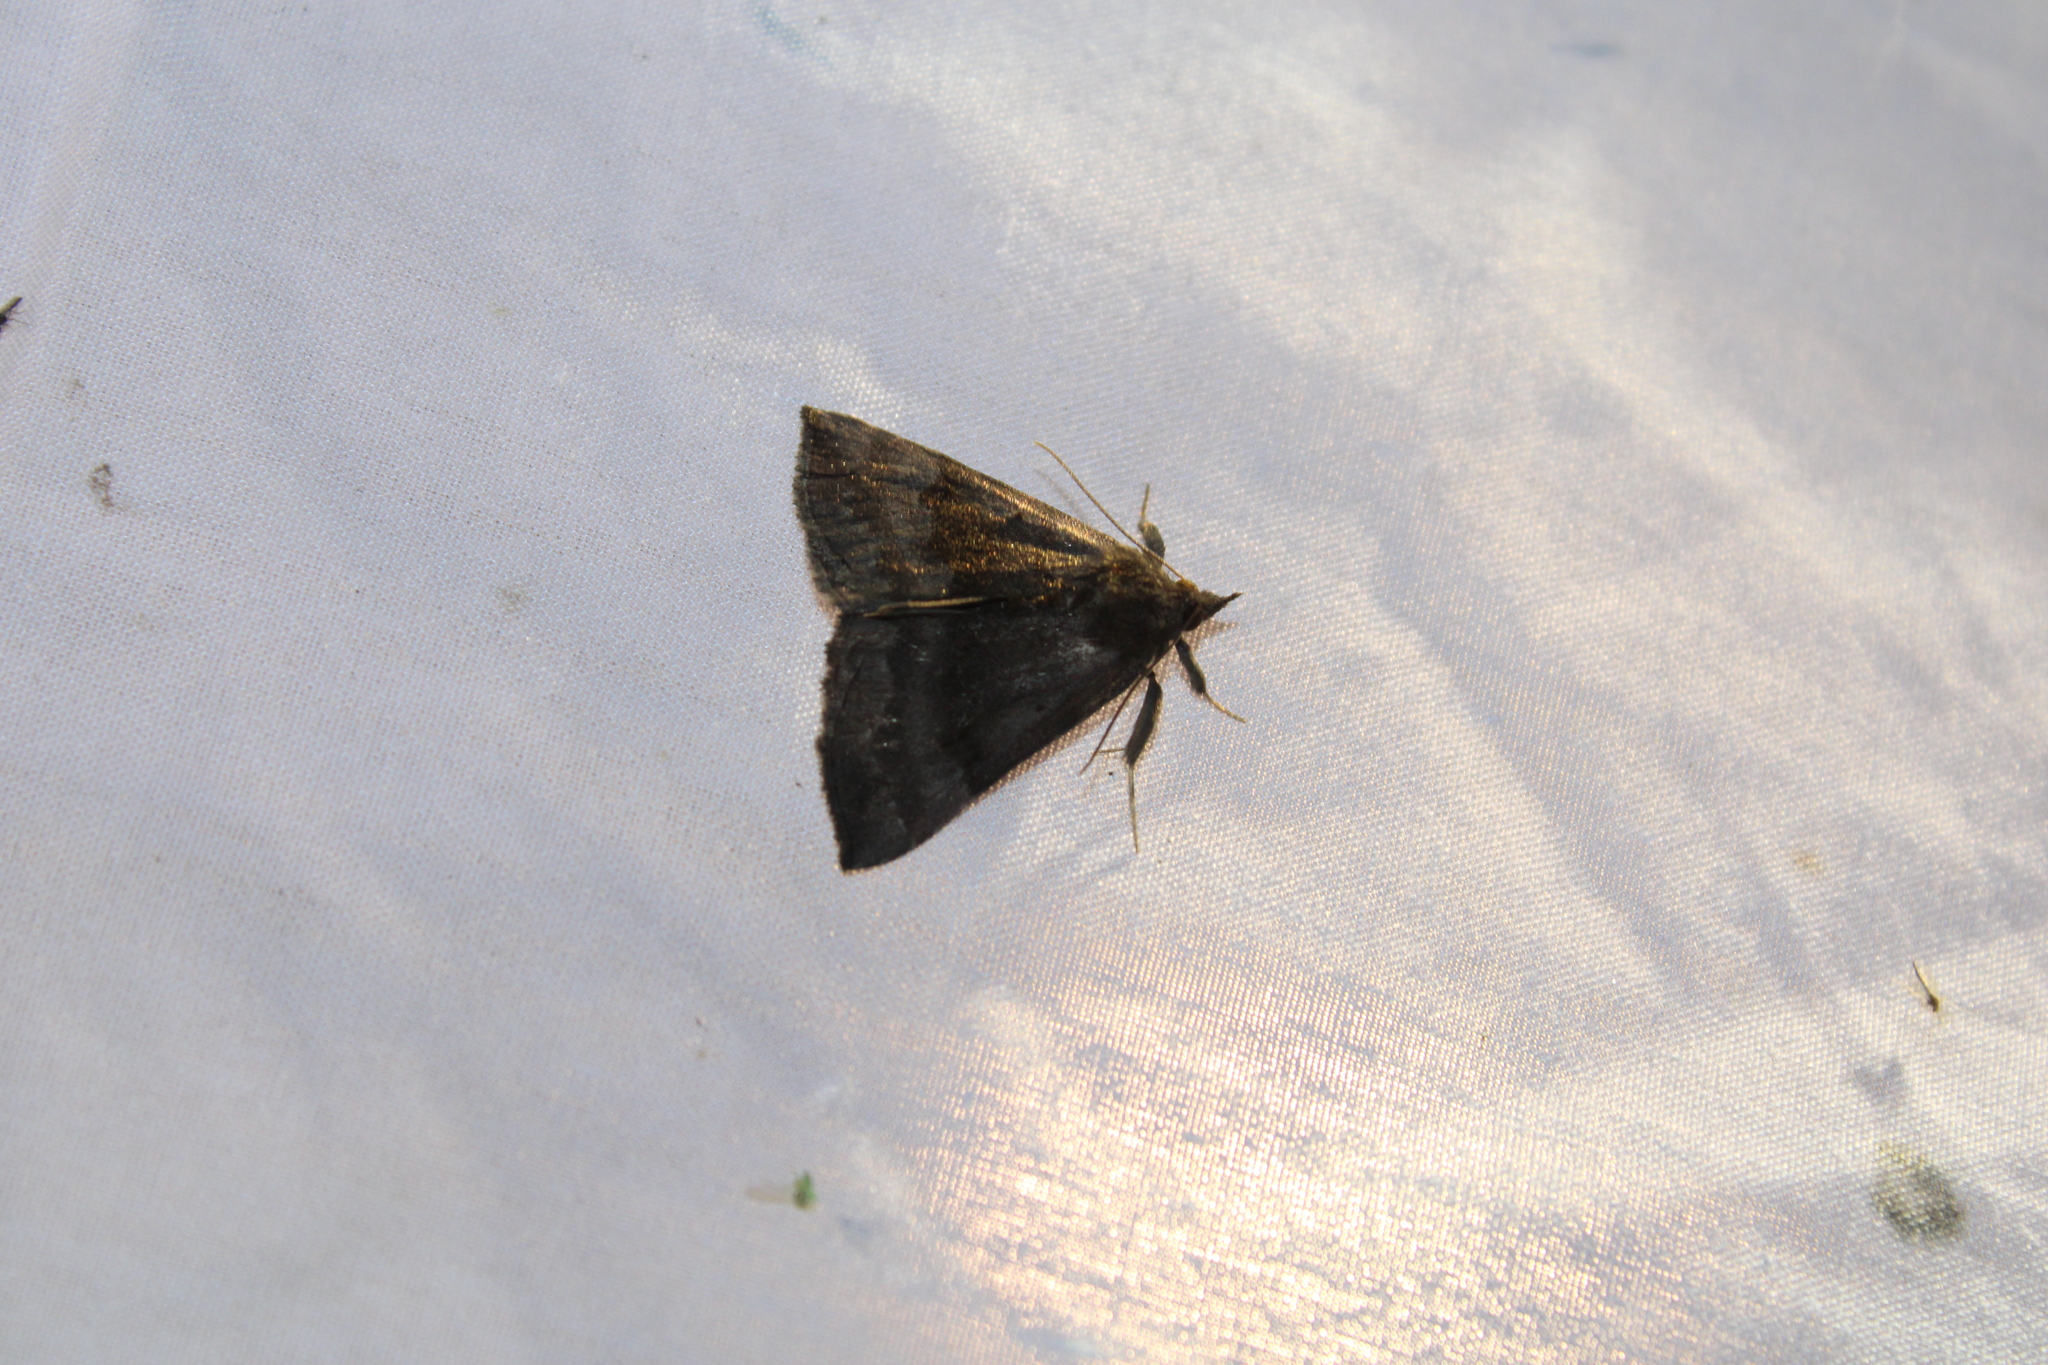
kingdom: Animalia
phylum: Arthropoda
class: Insecta
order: Lepidoptera
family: Erebidae
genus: Hypena
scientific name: Hypena madefactalis
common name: Gray-edged snout
